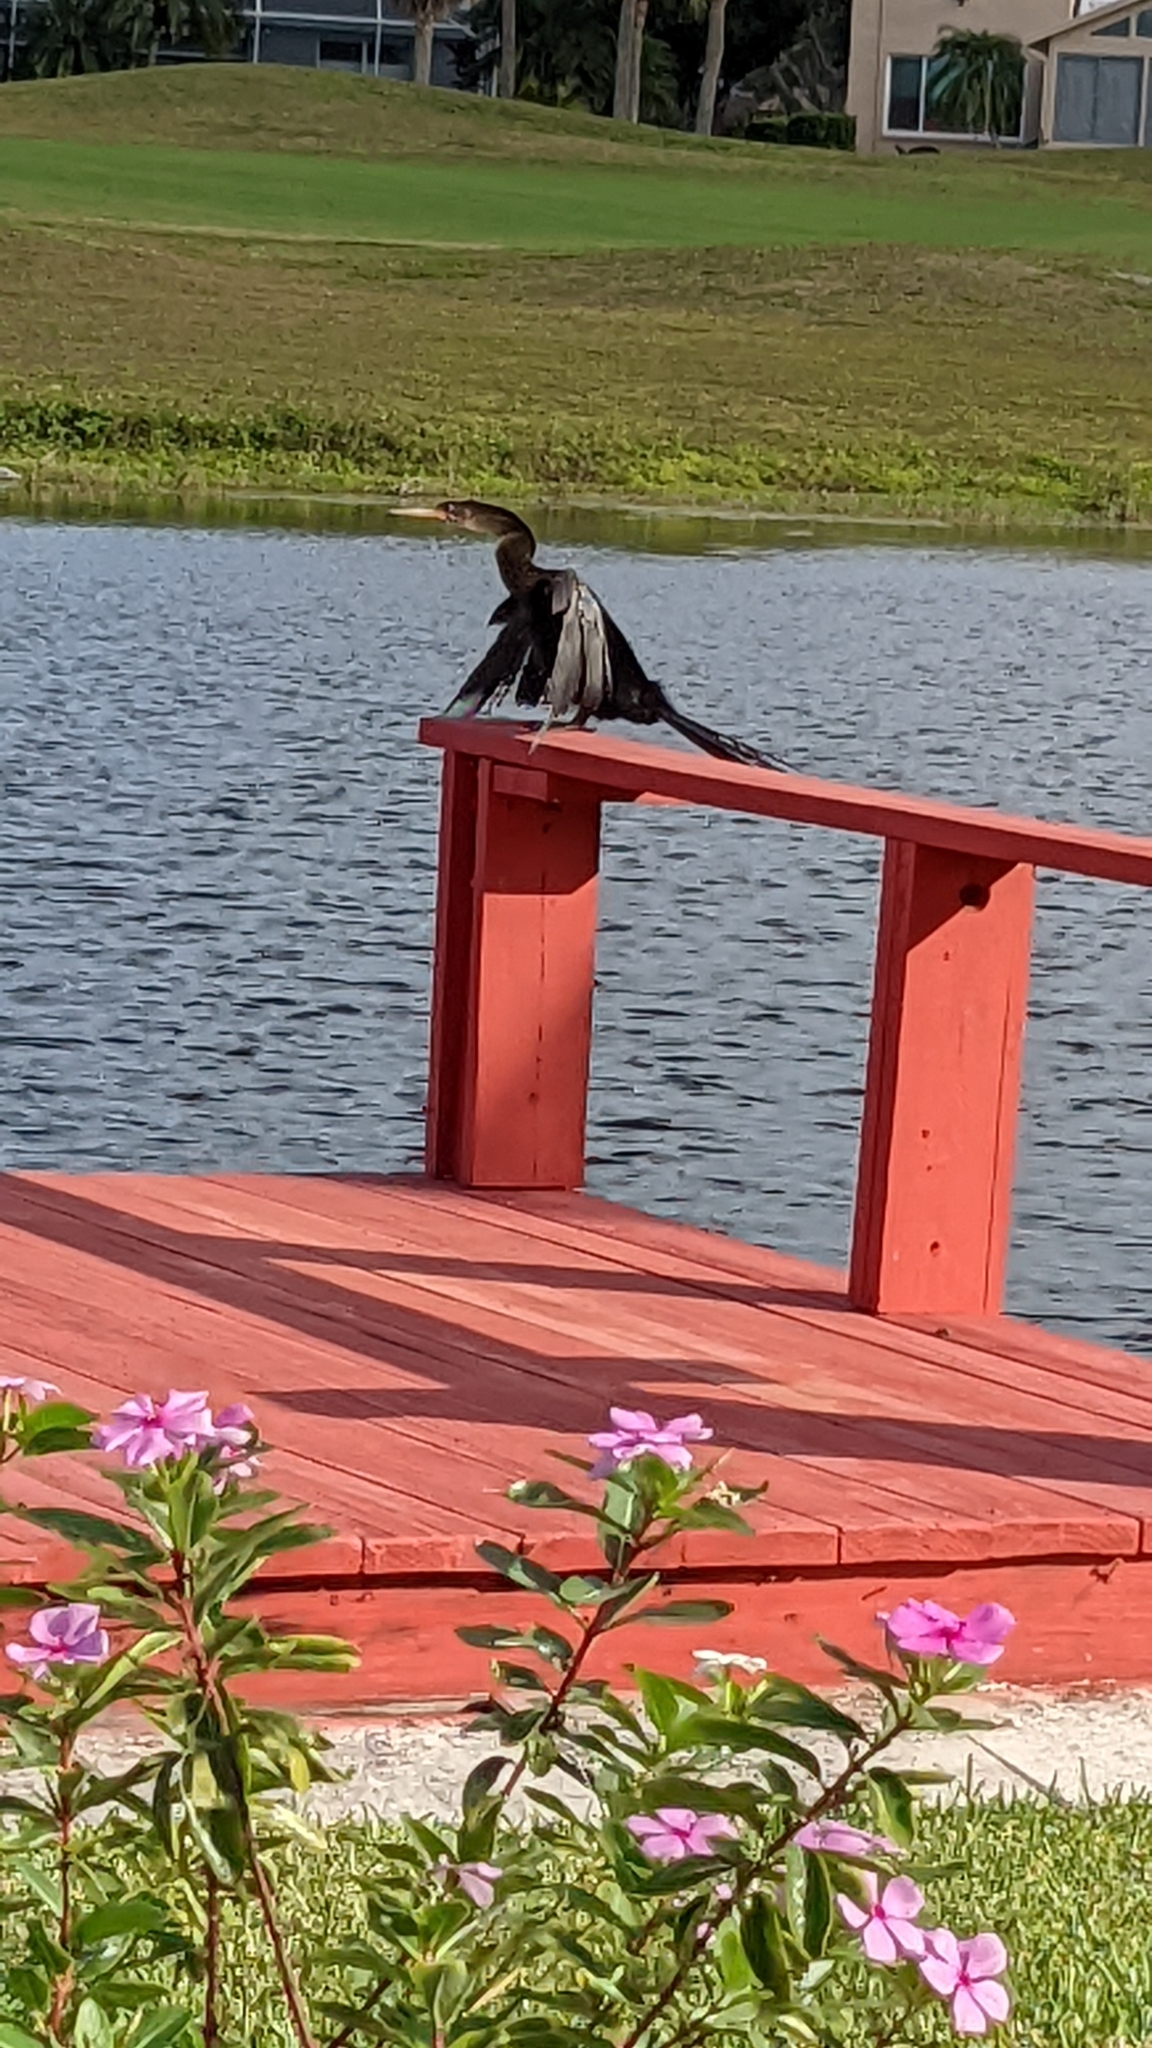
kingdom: Animalia
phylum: Chordata
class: Aves
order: Suliformes
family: Anhingidae
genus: Anhinga
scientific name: Anhinga anhinga
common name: Anhinga
